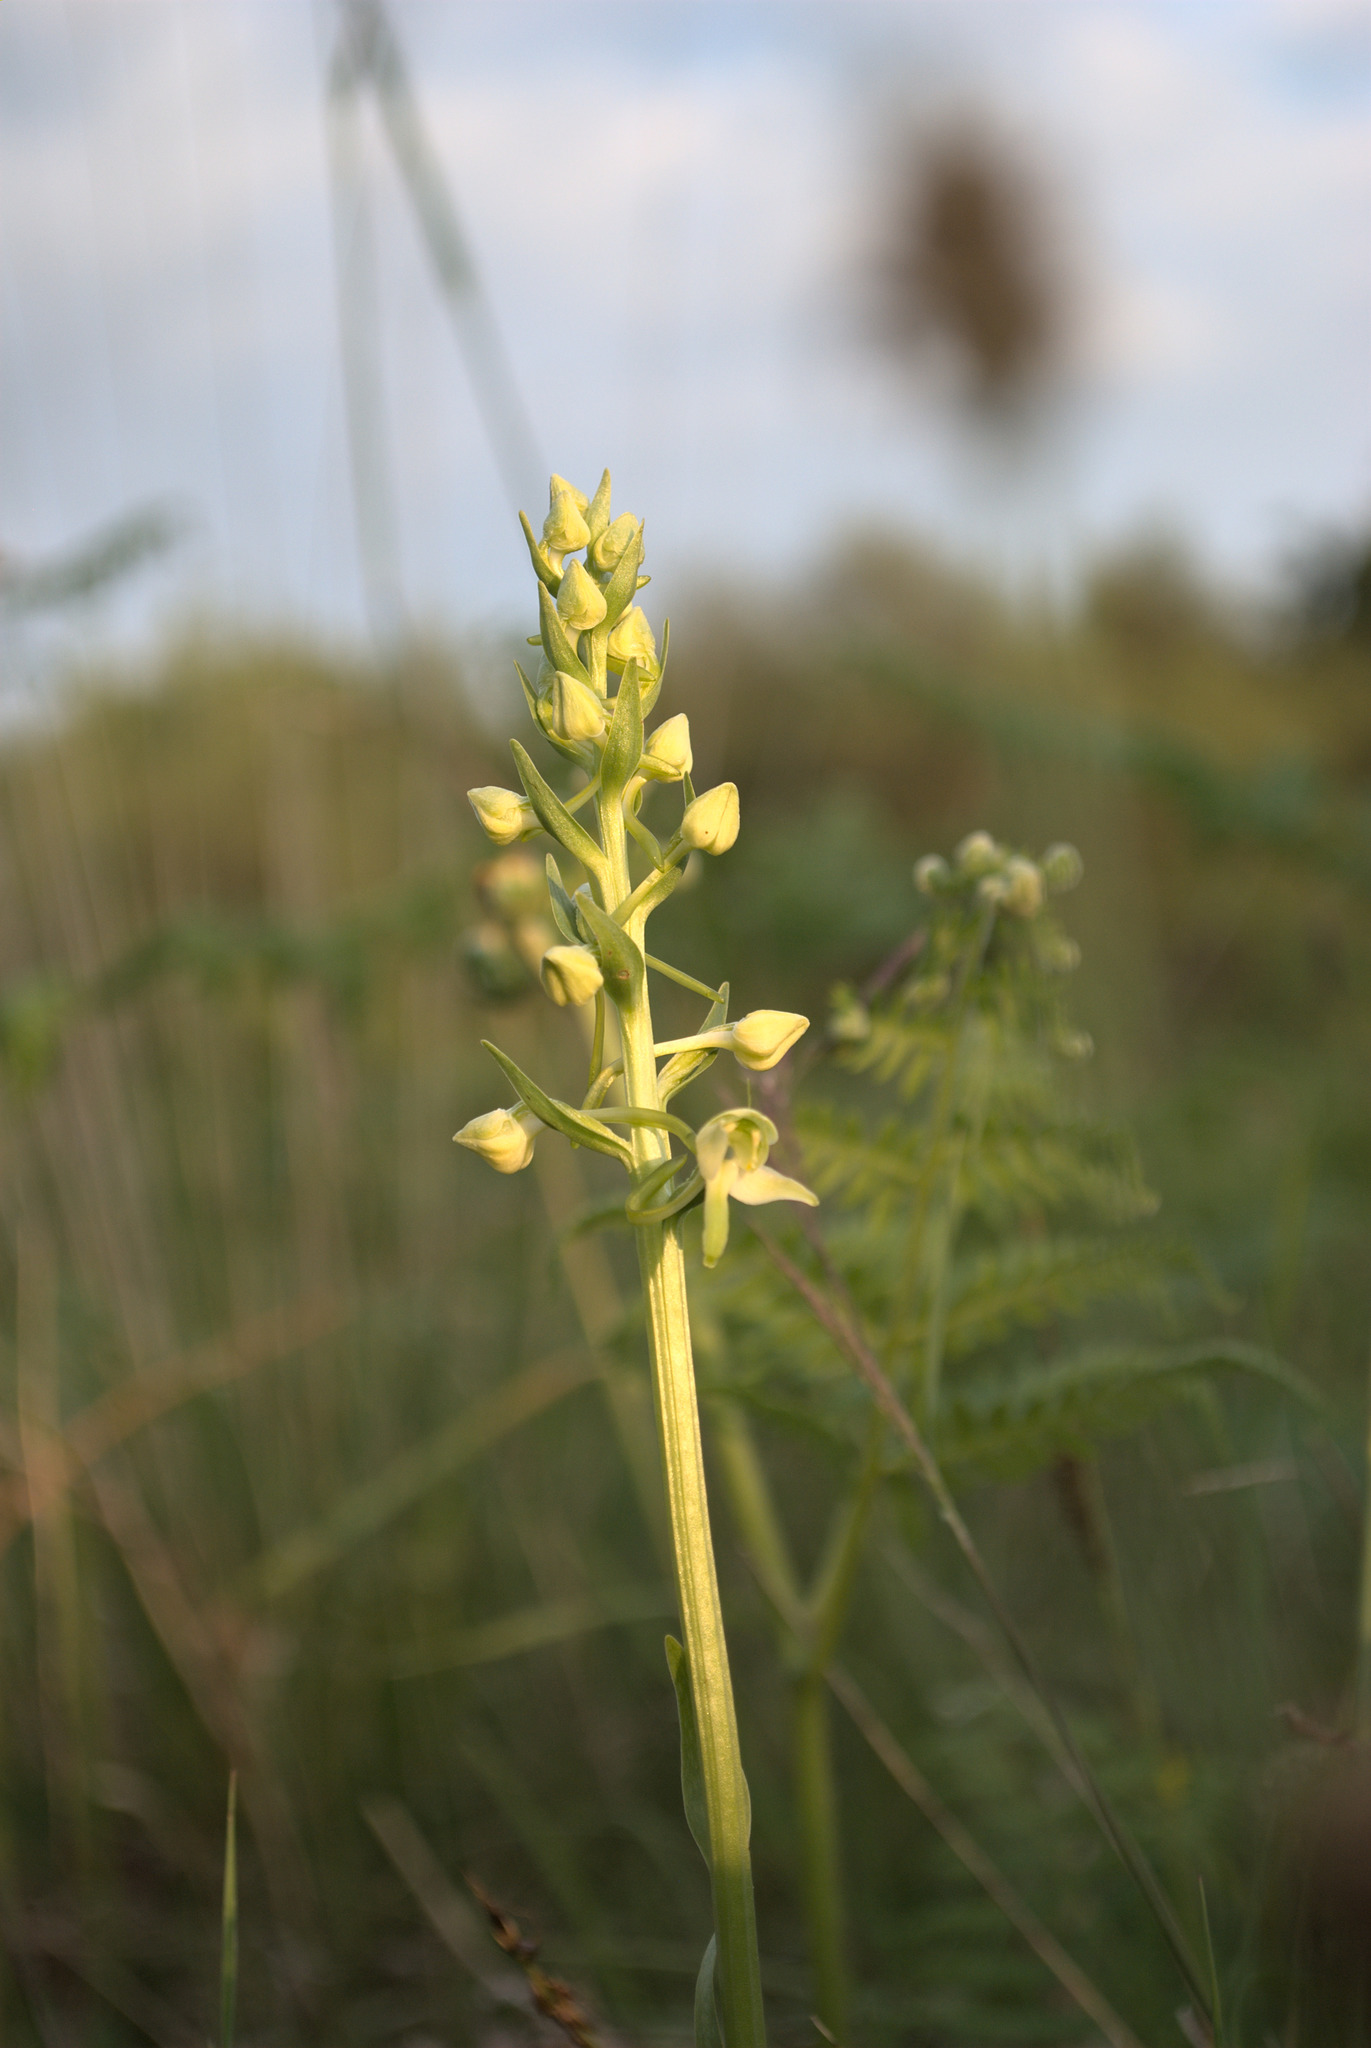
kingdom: Plantae
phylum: Tracheophyta
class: Liliopsida
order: Asparagales
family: Orchidaceae
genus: Platanthera
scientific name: Platanthera chlorantha
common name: Greater butterfly-orchid
